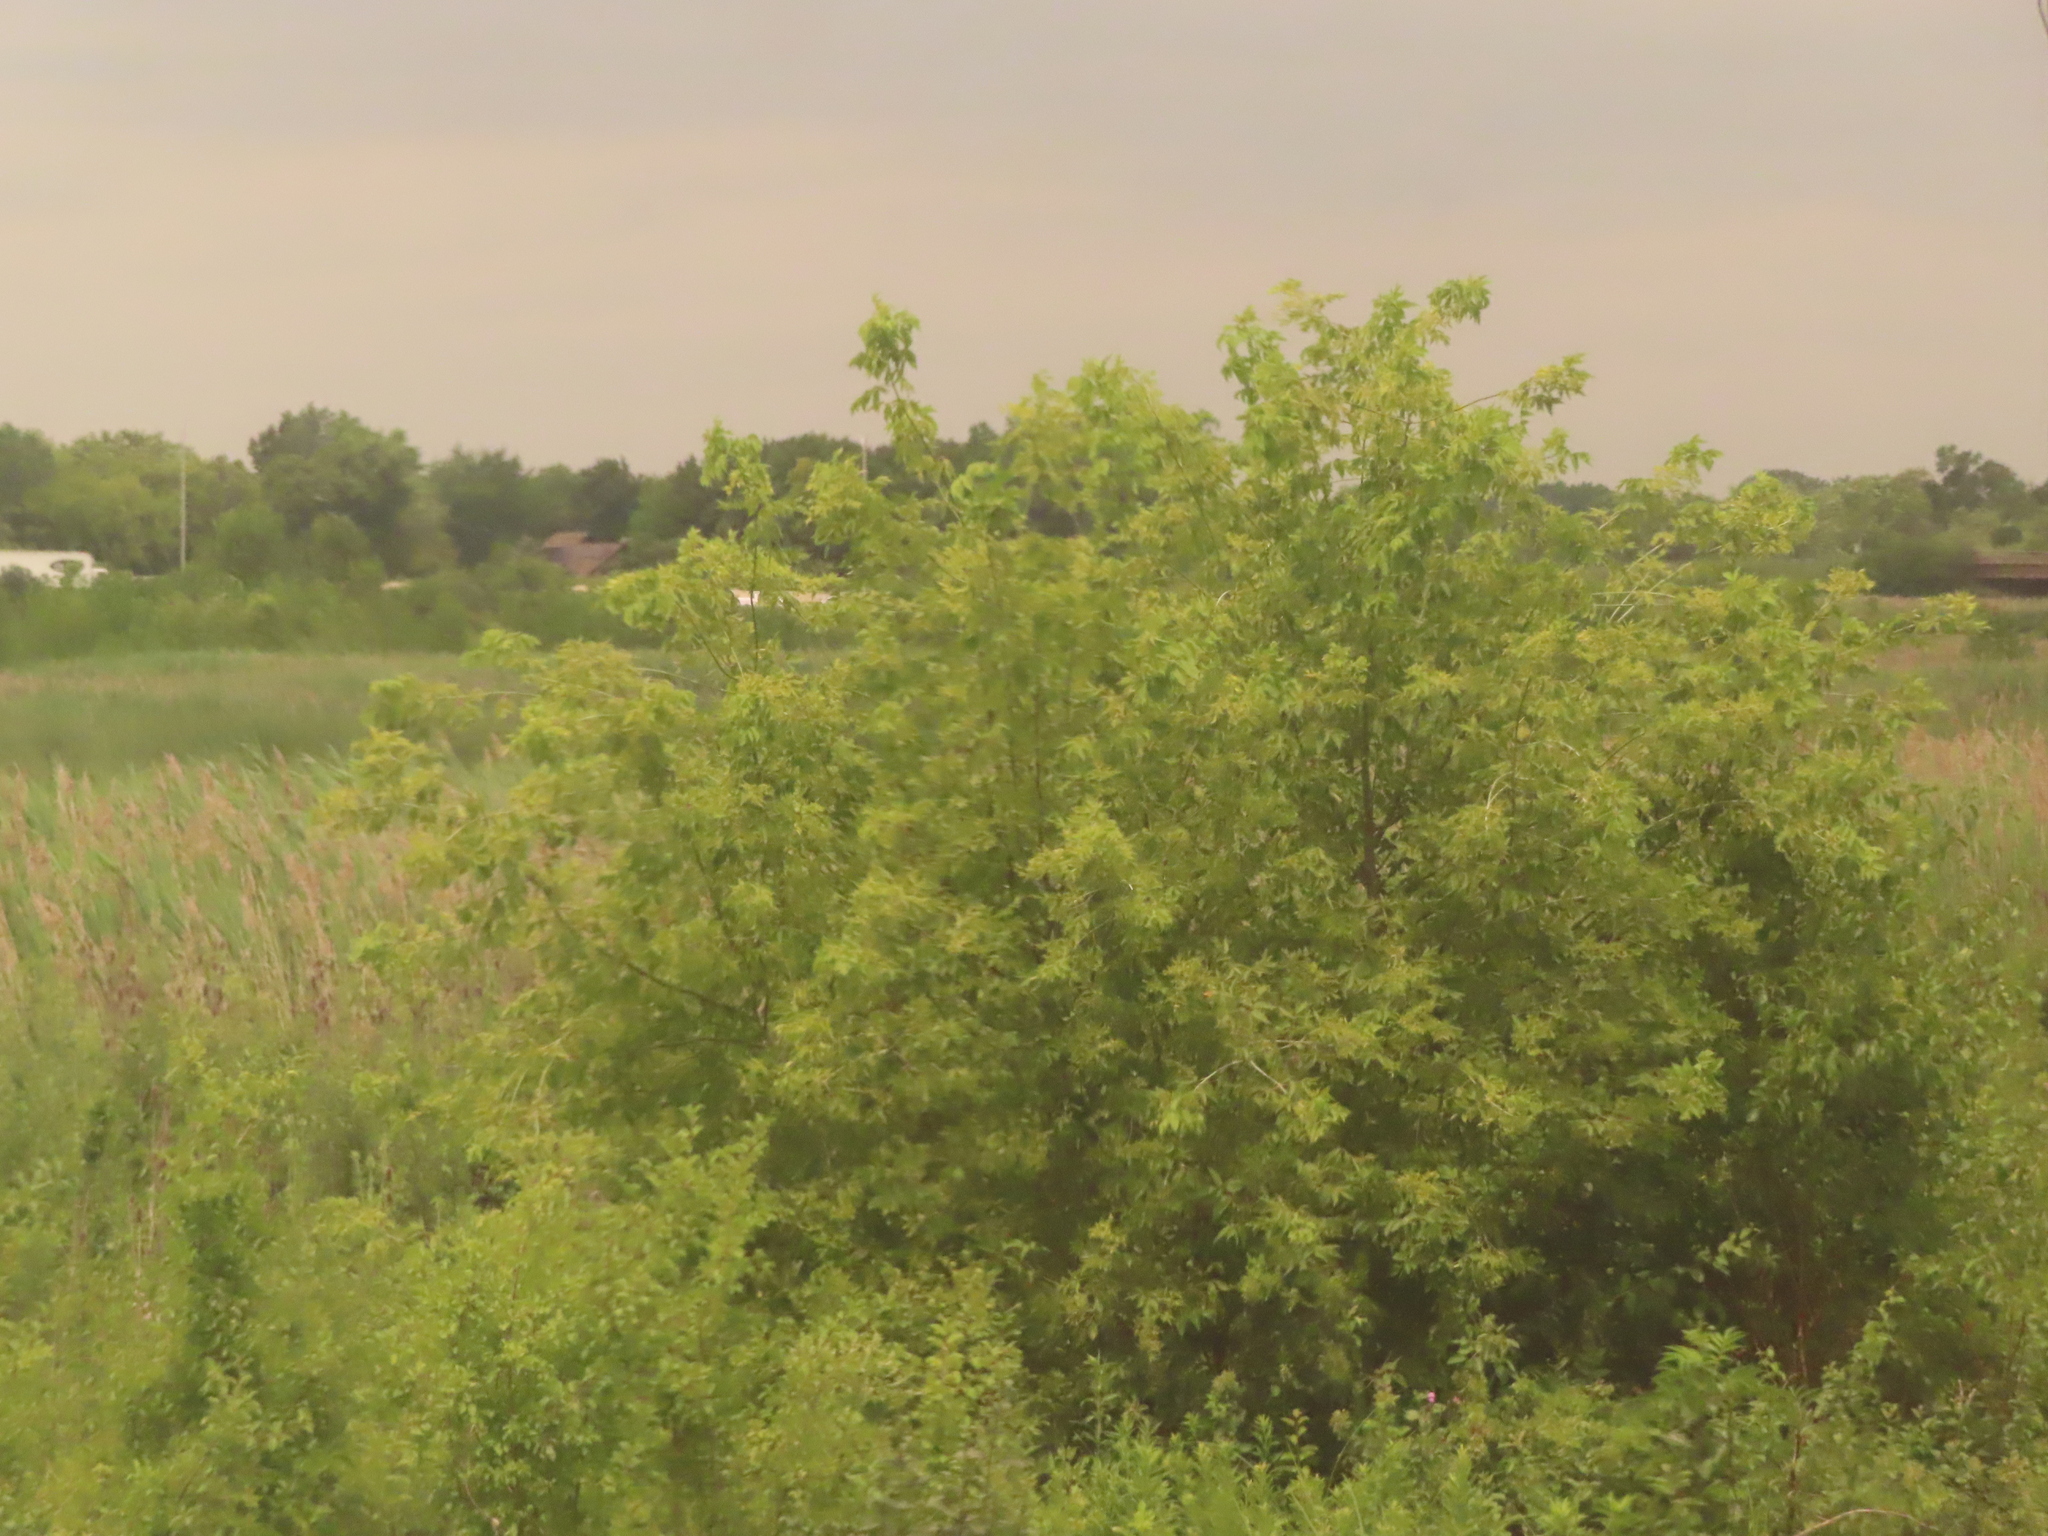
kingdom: Plantae
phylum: Tracheophyta
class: Magnoliopsida
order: Sapindales
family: Sapindaceae
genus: Acer
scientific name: Acer negundo
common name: Ashleaf maple
